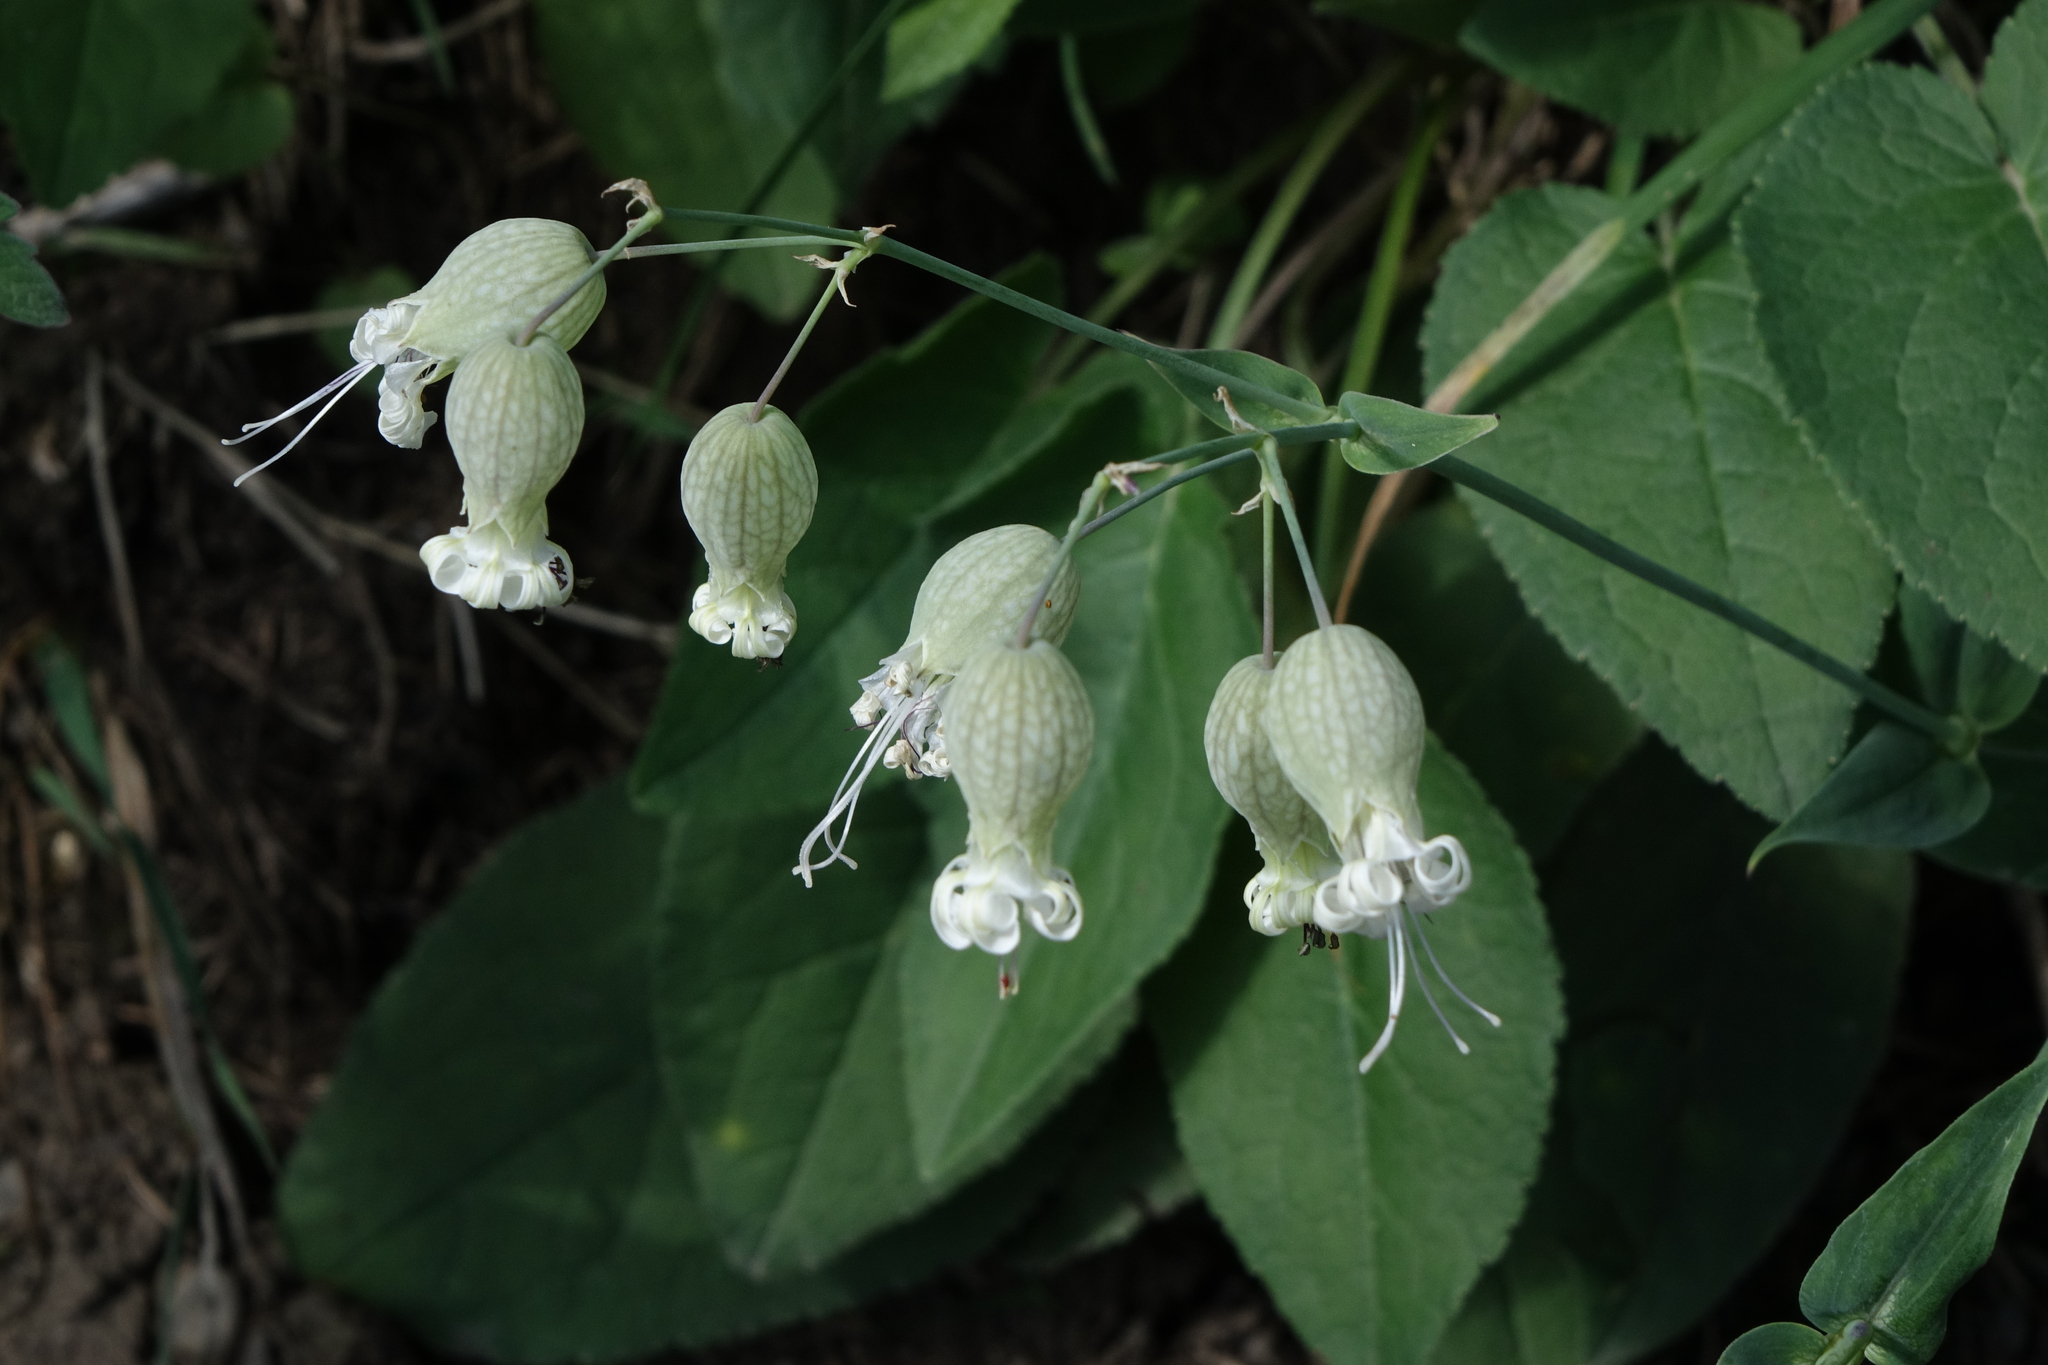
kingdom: Plantae
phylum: Tracheophyta
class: Magnoliopsida
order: Caryophyllales
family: Caryophyllaceae
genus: Silene
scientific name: Silene vulgaris
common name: Bladder campion
